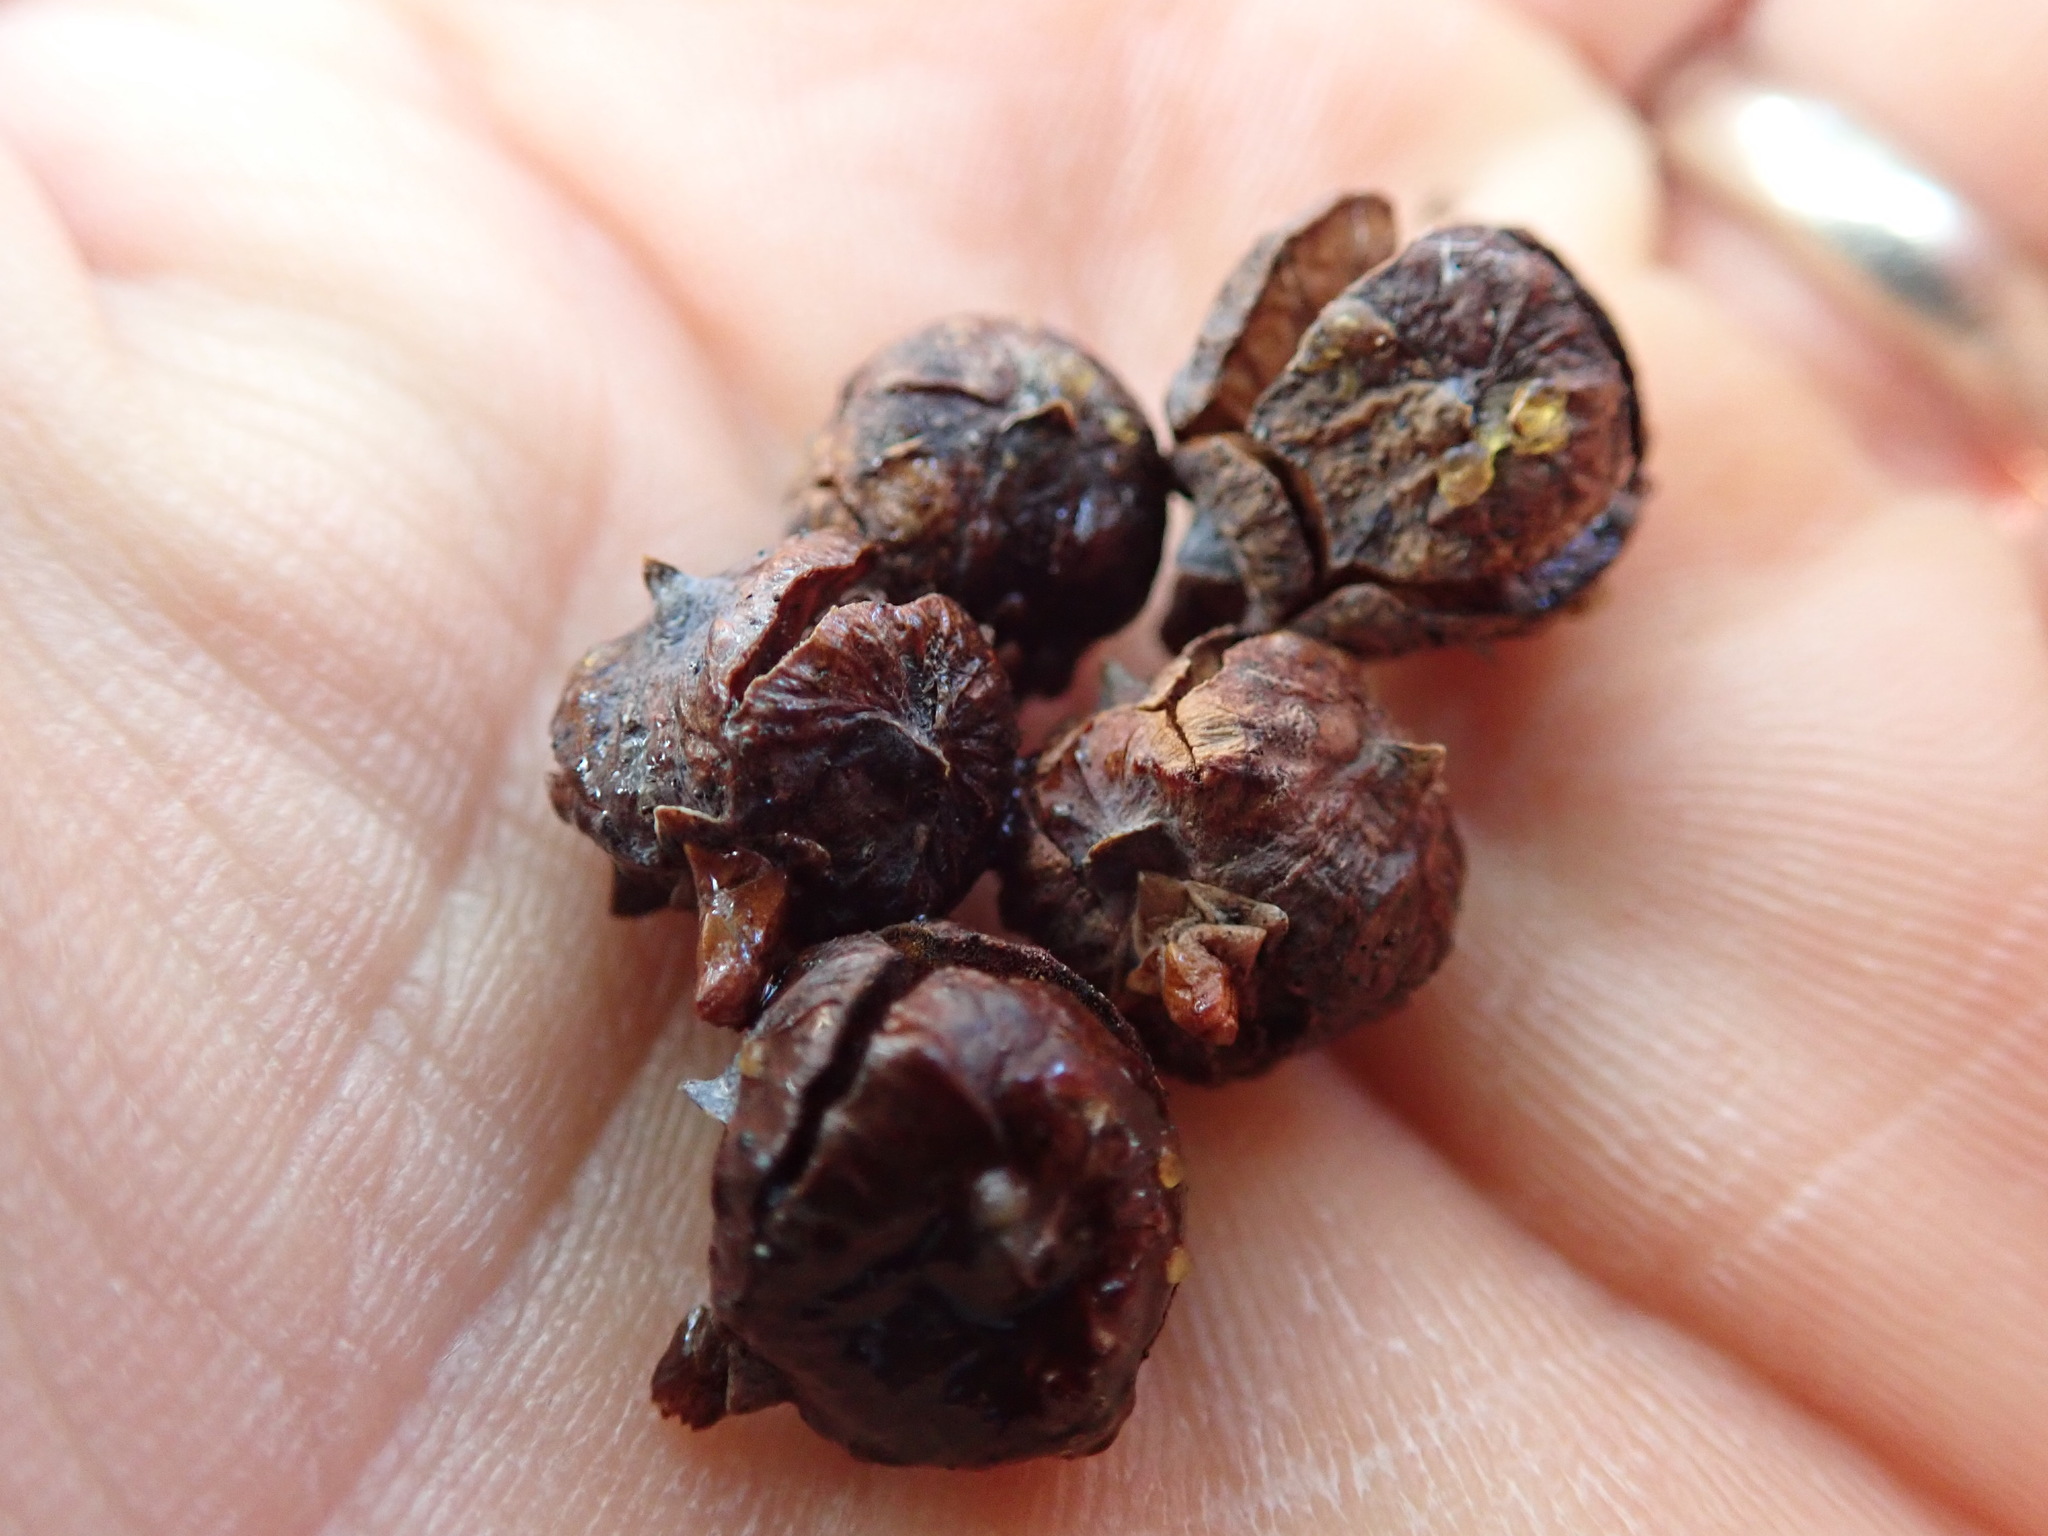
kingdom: Plantae
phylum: Tracheophyta
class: Pinopsida
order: Pinales
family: Cupressaceae
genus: Xanthocyparis
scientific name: Xanthocyparis nootkatensis
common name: Nootka cypress
